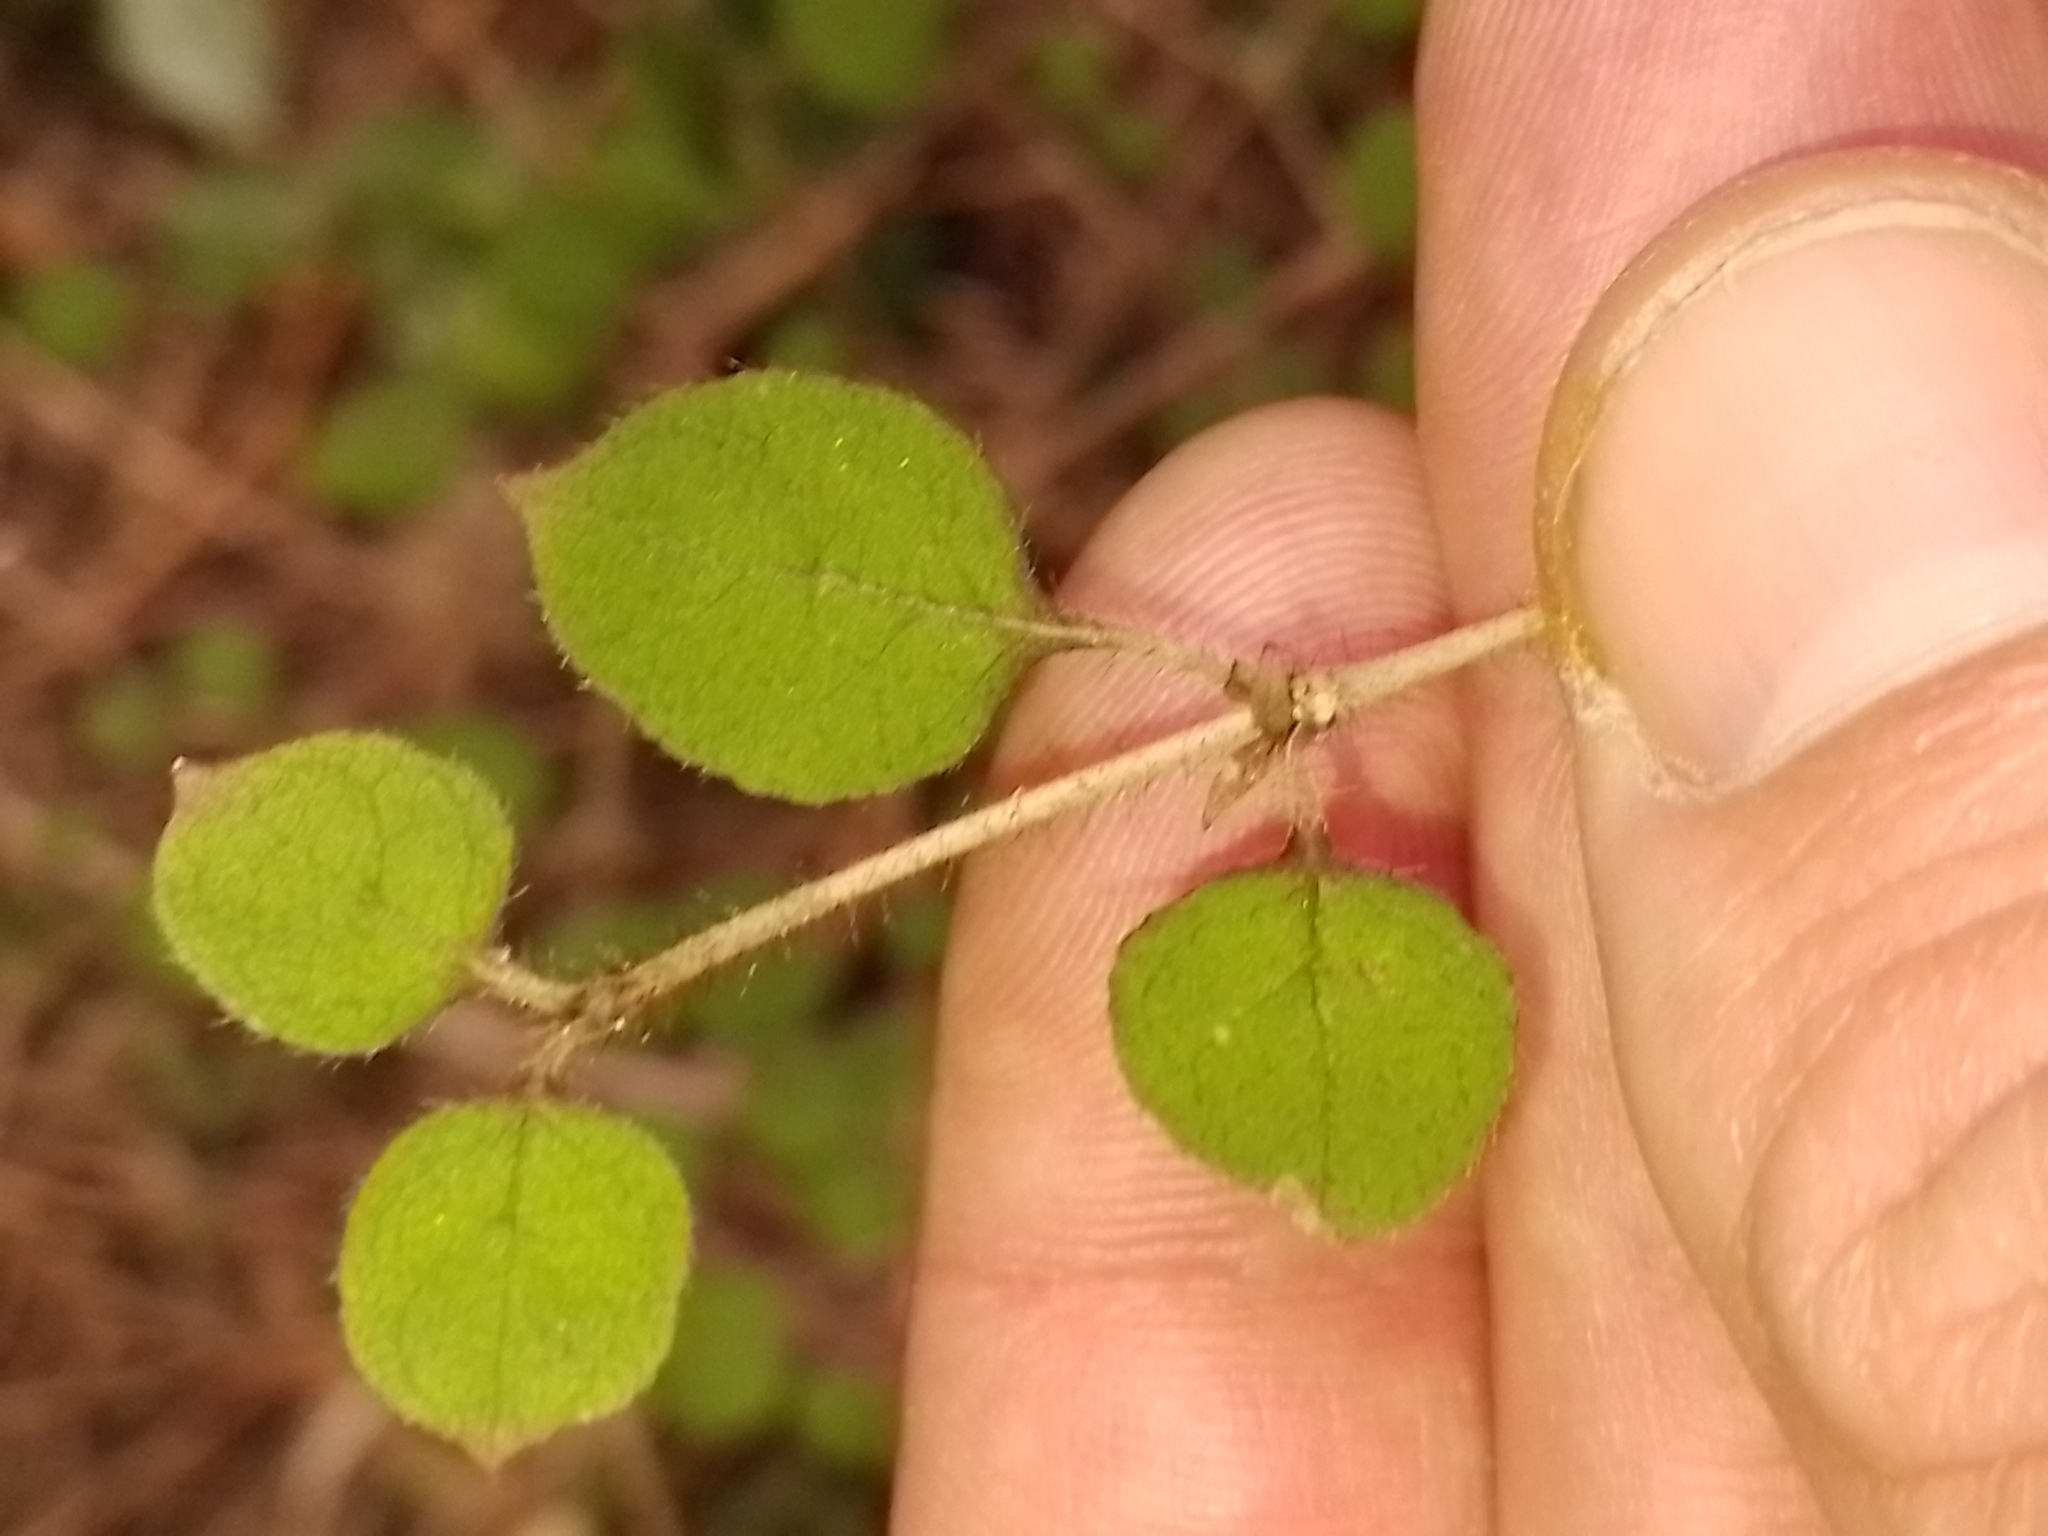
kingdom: Plantae
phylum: Tracheophyta
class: Magnoliopsida
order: Gentianales
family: Rubiaceae
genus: Coprosma
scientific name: Coprosma rotundifolia
